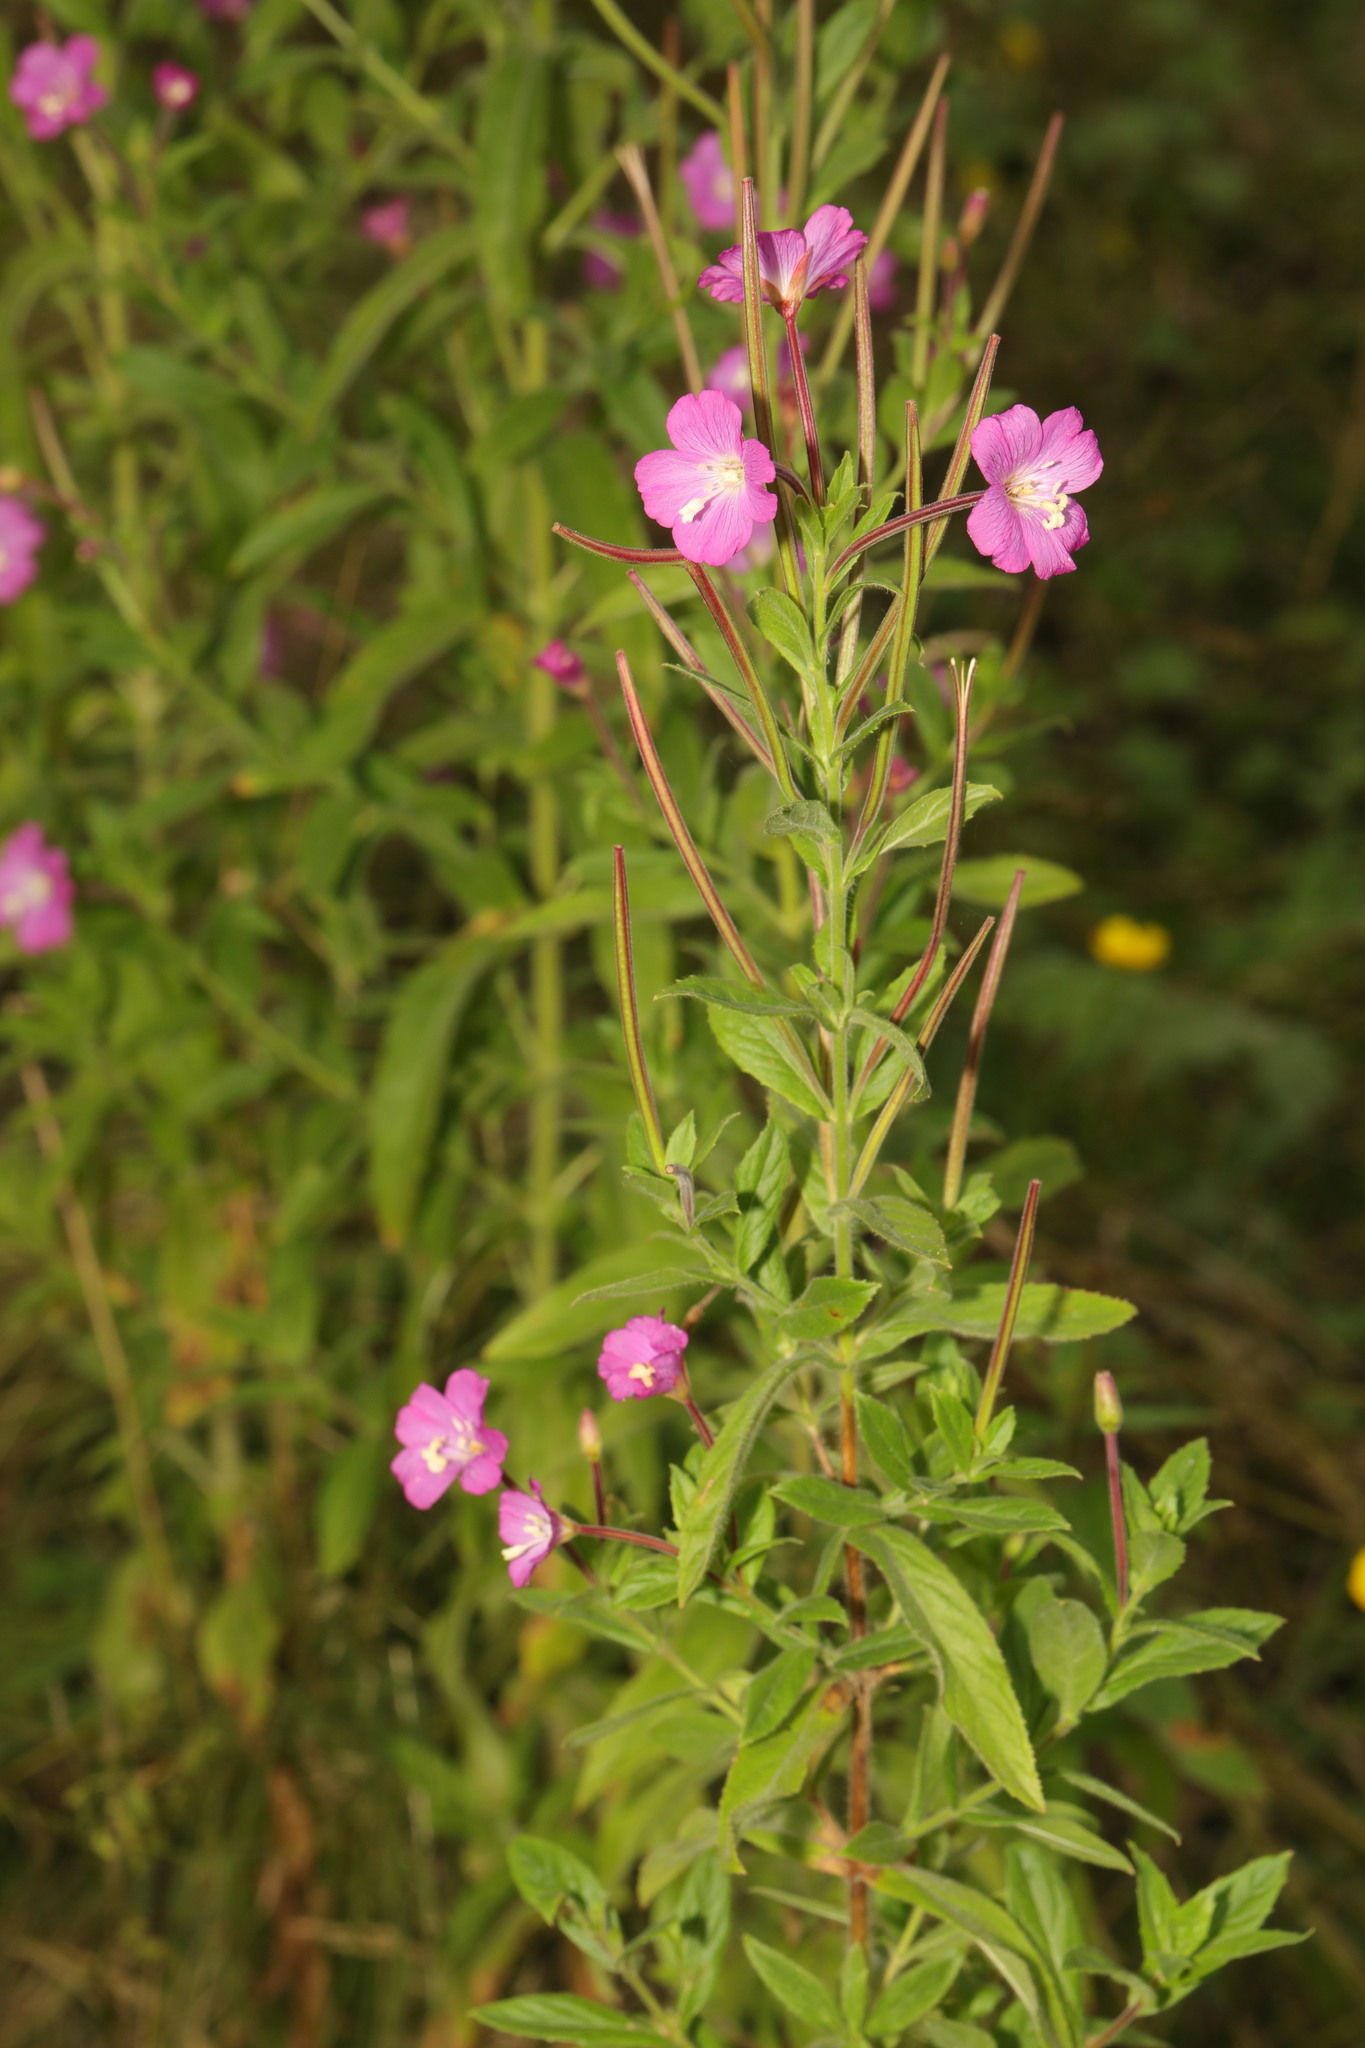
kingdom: Plantae
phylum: Tracheophyta
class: Magnoliopsida
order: Myrtales
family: Onagraceae
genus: Epilobium
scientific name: Epilobium hirsutum
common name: Great willowherb
